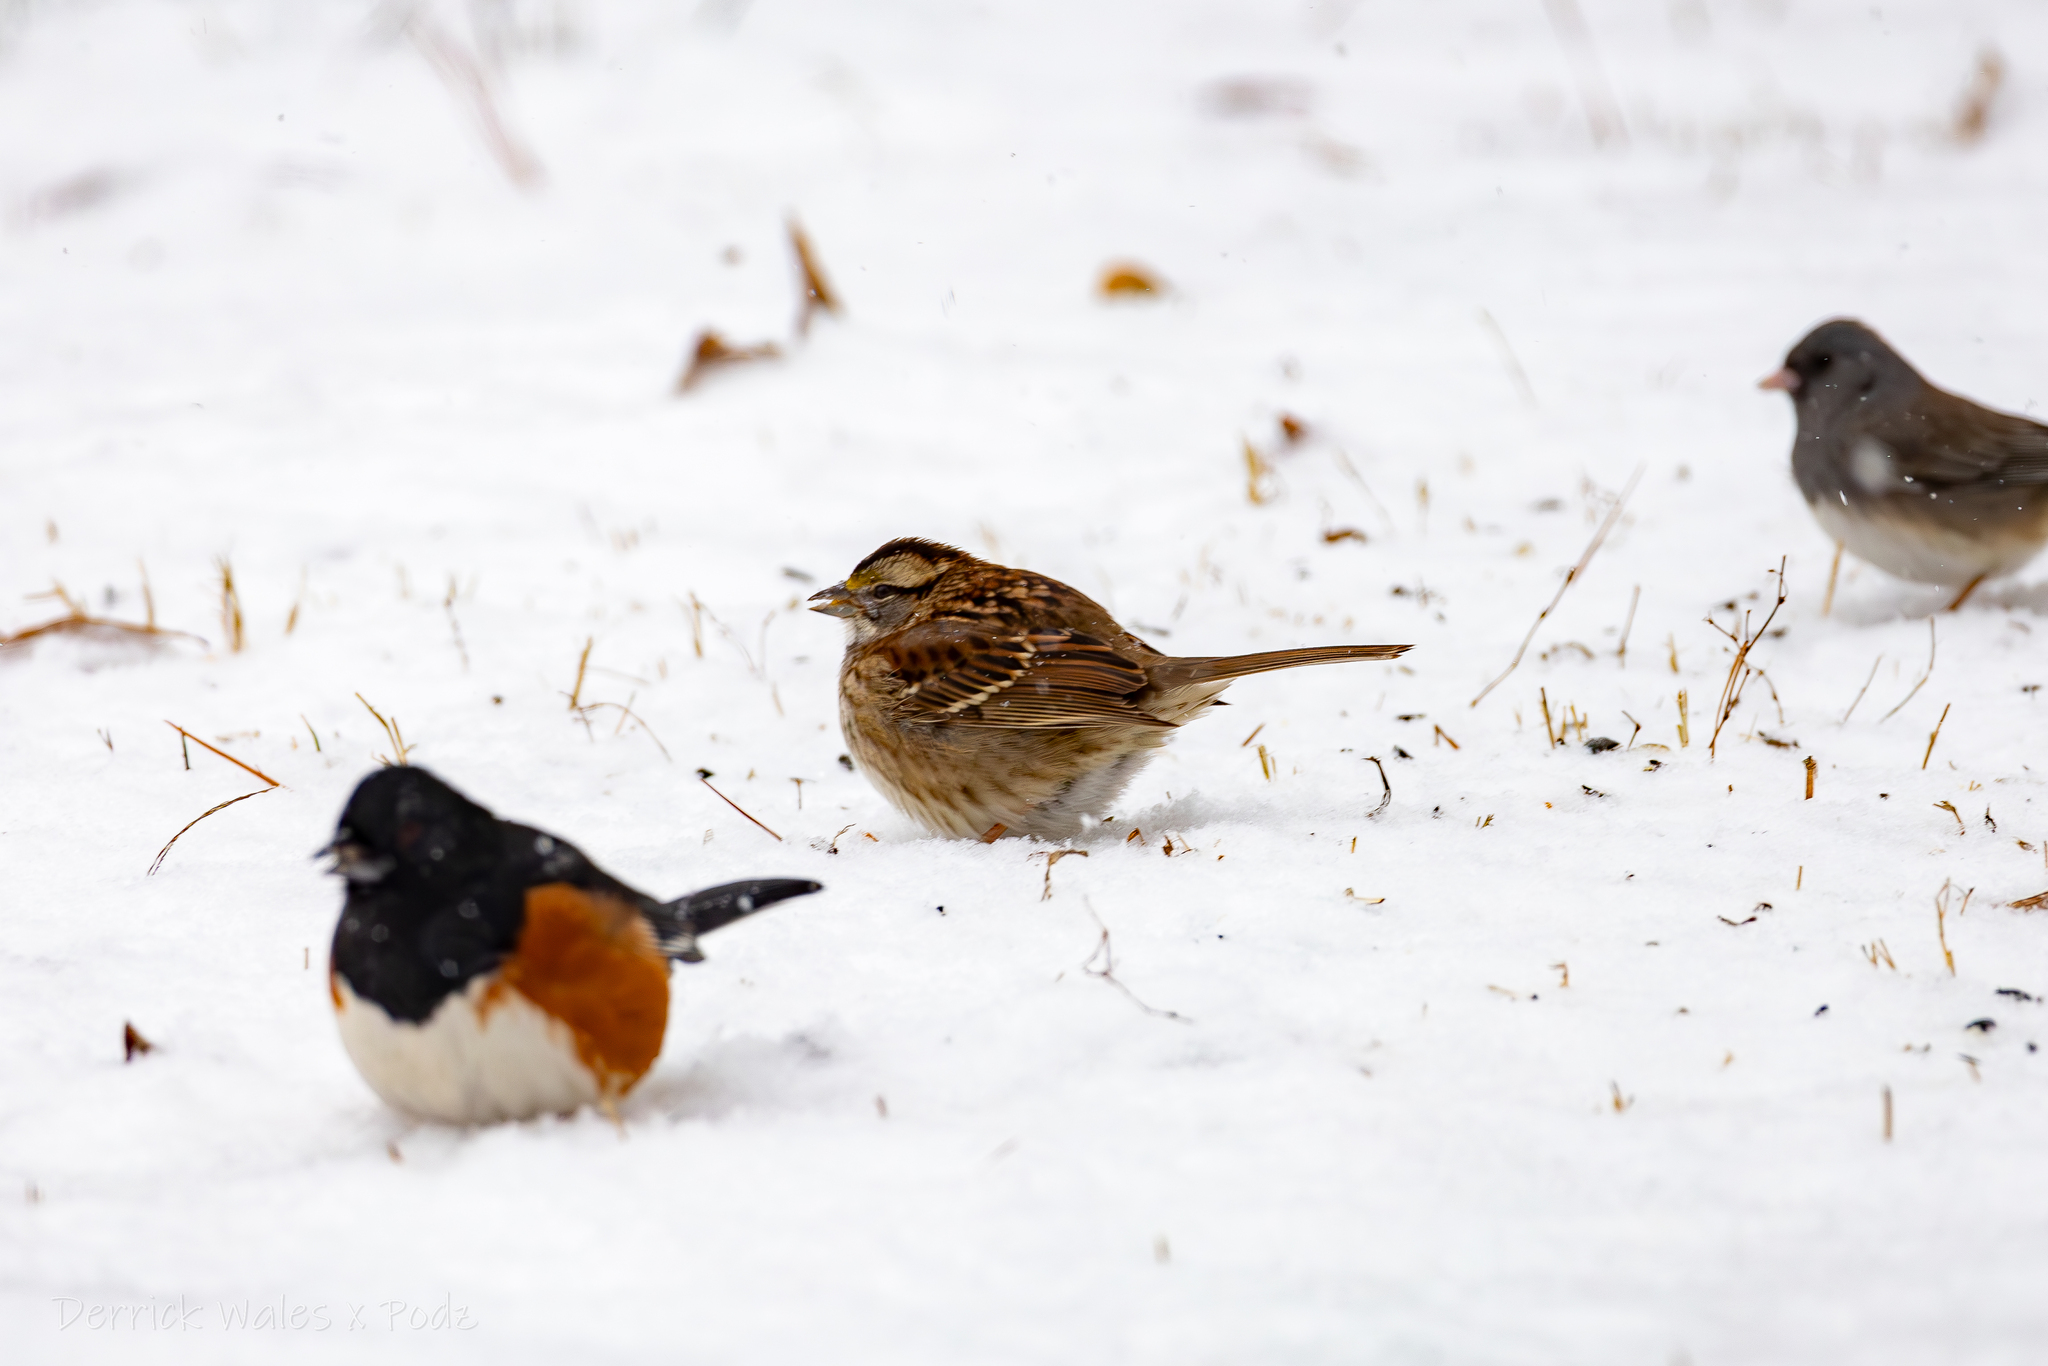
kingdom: Animalia
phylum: Chordata
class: Aves
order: Passeriformes
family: Passerellidae
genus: Zonotrichia
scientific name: Zonotrichia albicollis
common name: White-throated sparrow
